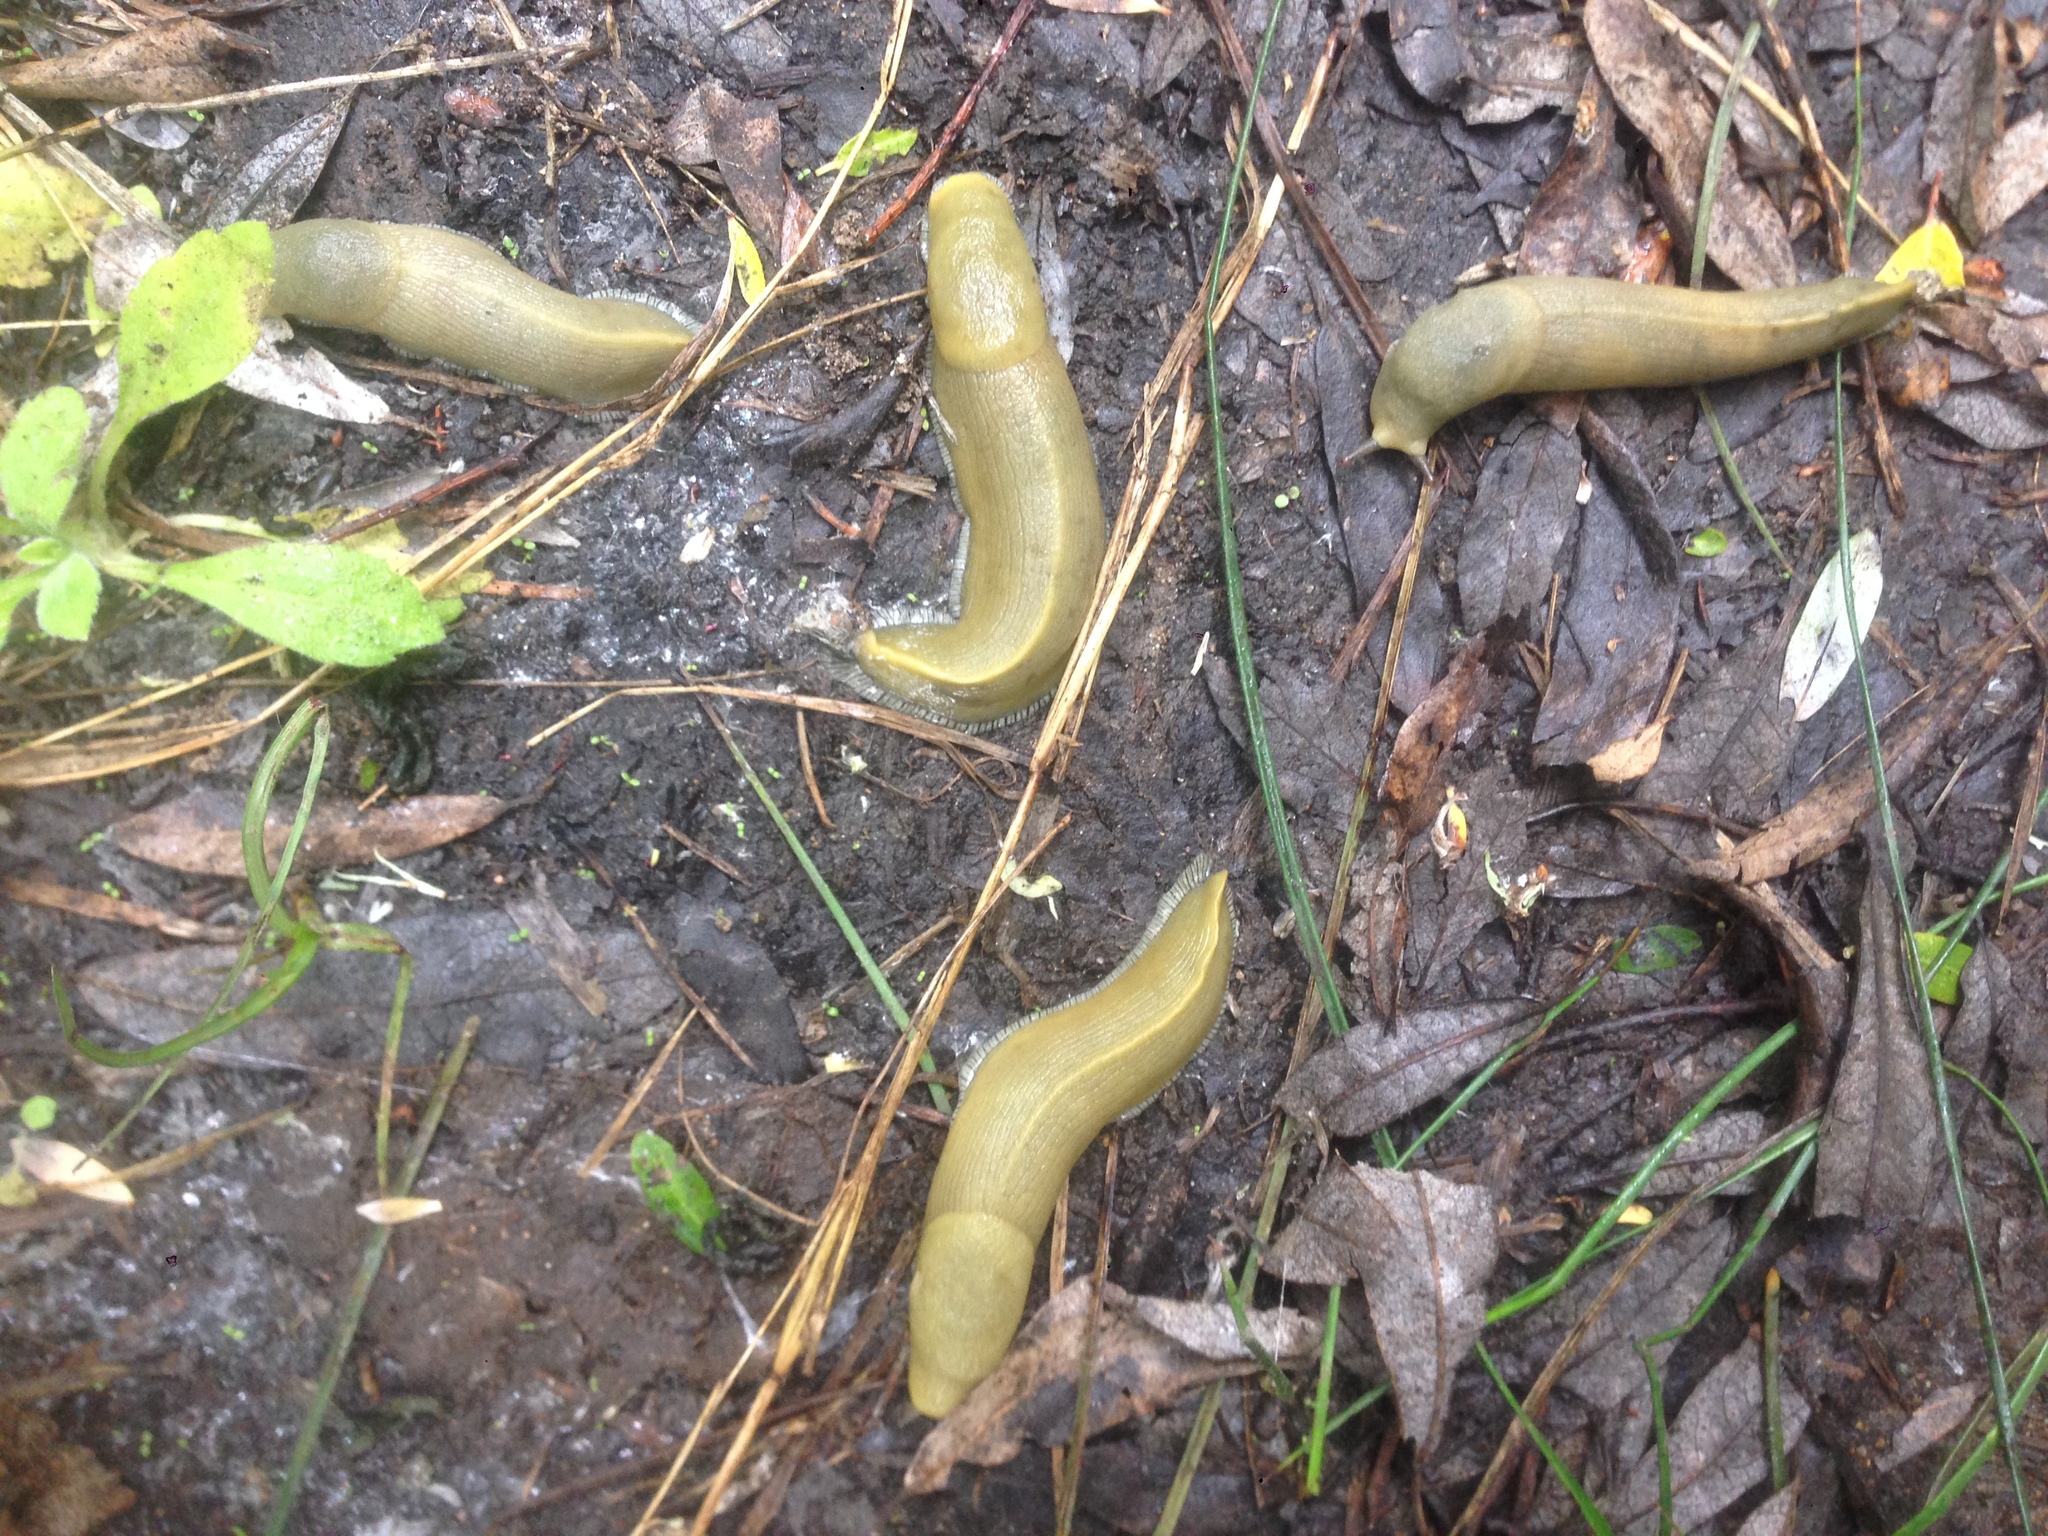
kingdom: Animalia
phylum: Mollusca
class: Gastropoda
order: Stylommatophora
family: Ariolimacidae
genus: Ariolimax
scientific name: Ariolimax stramineus
